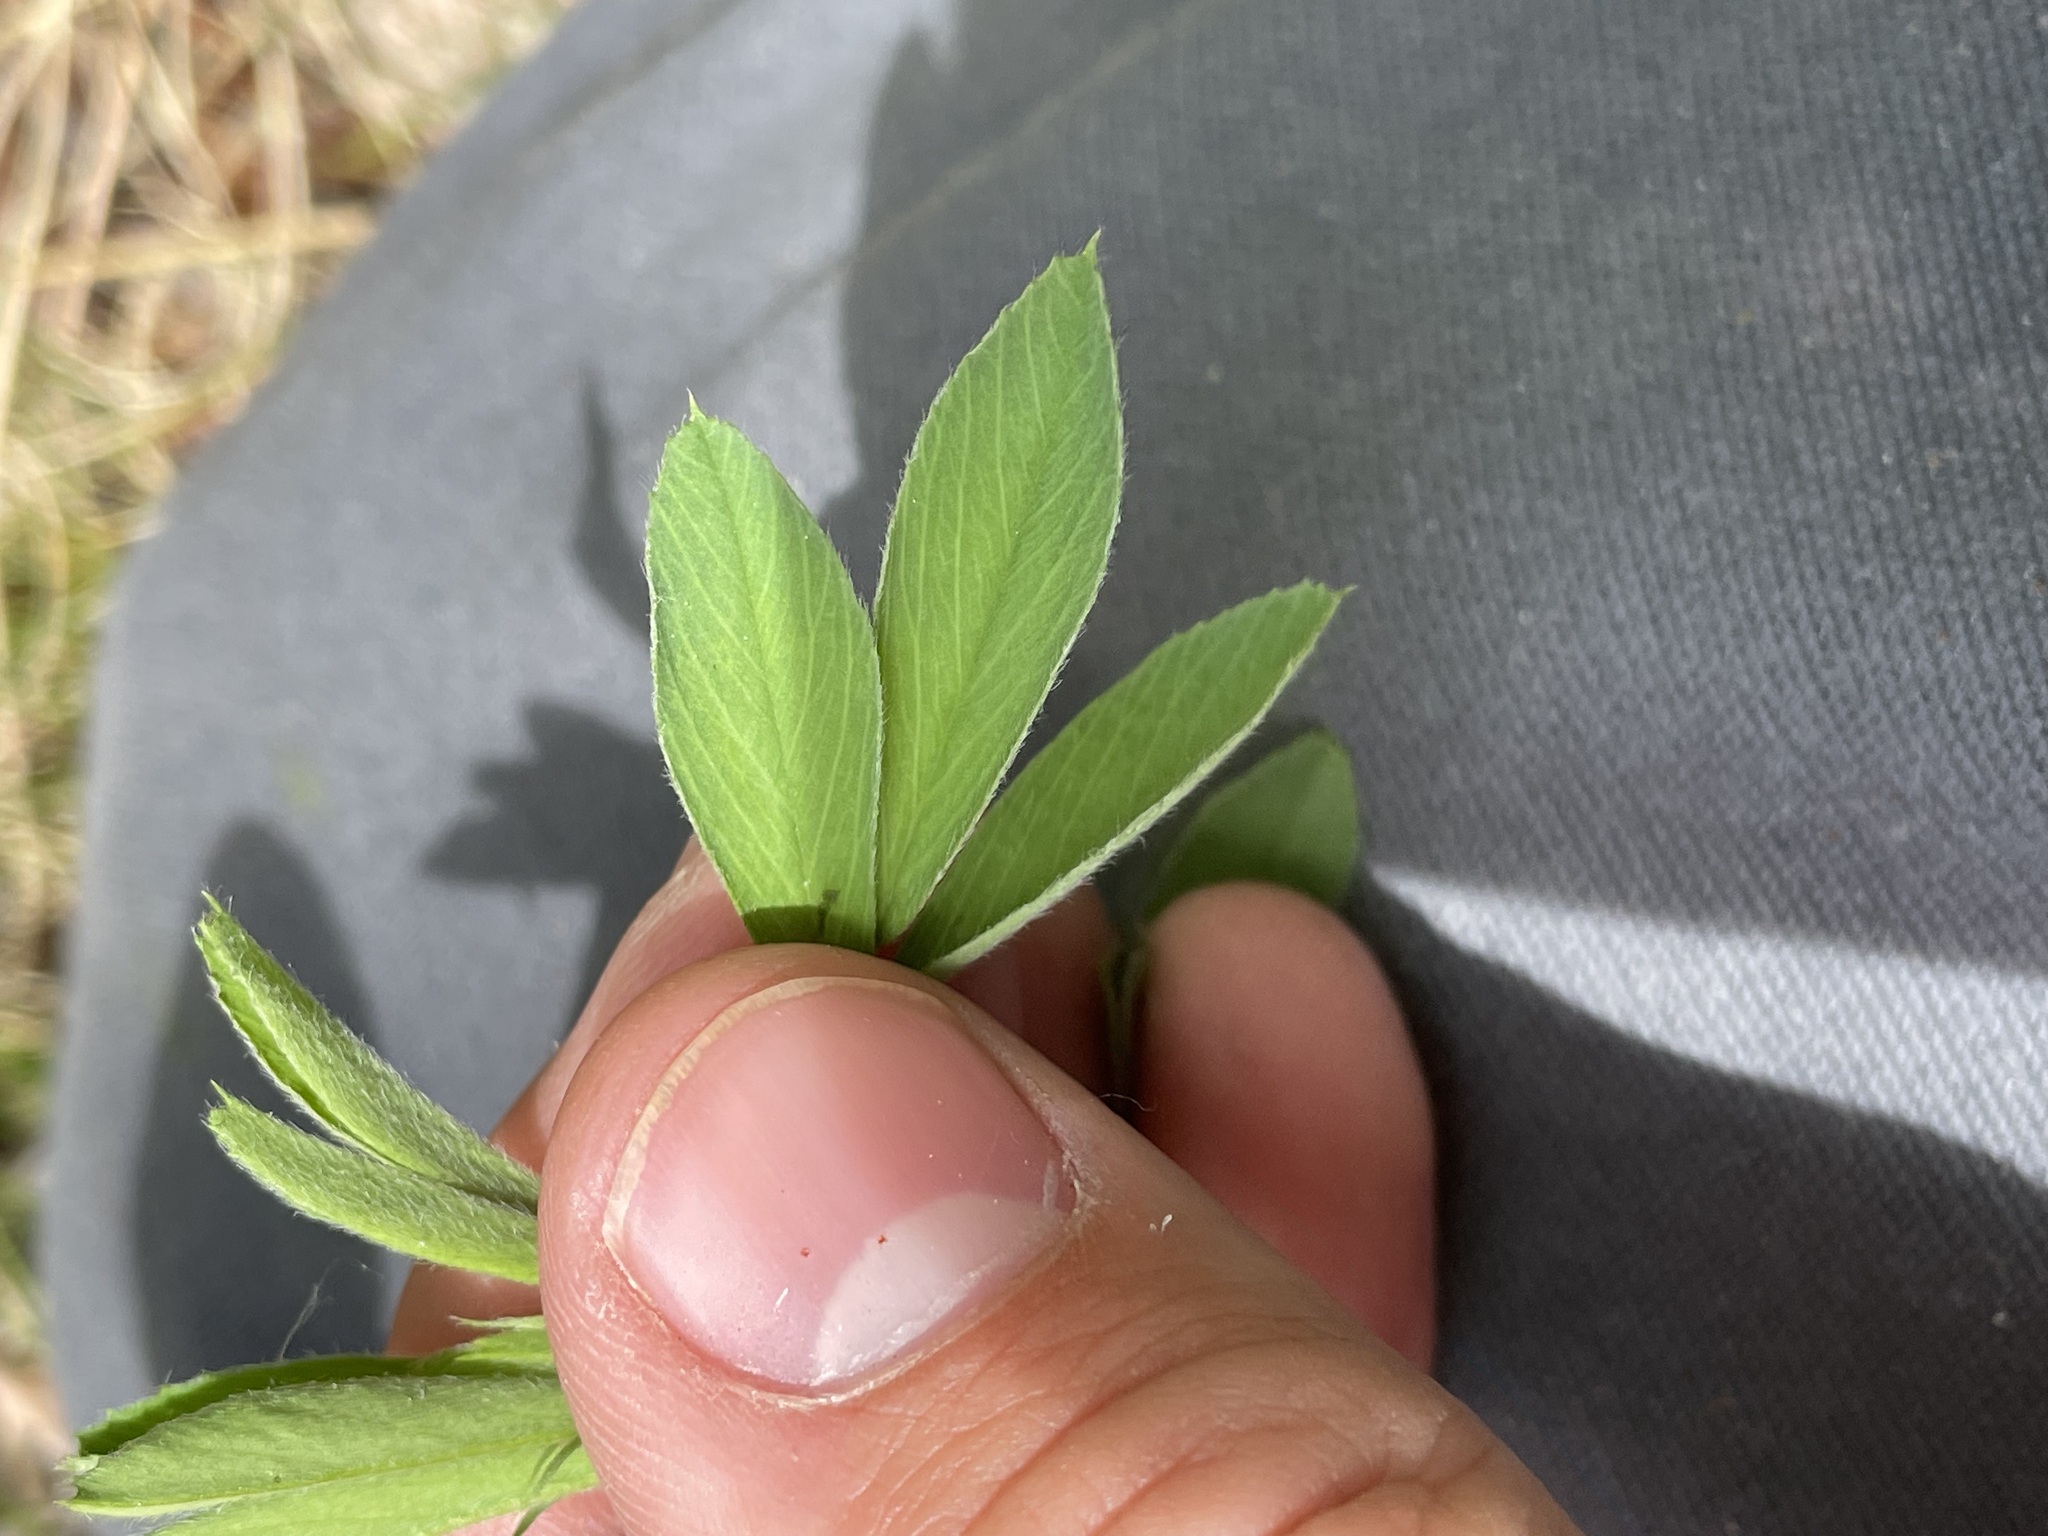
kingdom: Plantae
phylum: Tracheophyta
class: Magnoliopsida
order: Fabales
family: Fabaceae
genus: Medicago
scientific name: Medicago sativa
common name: Alfalfa
